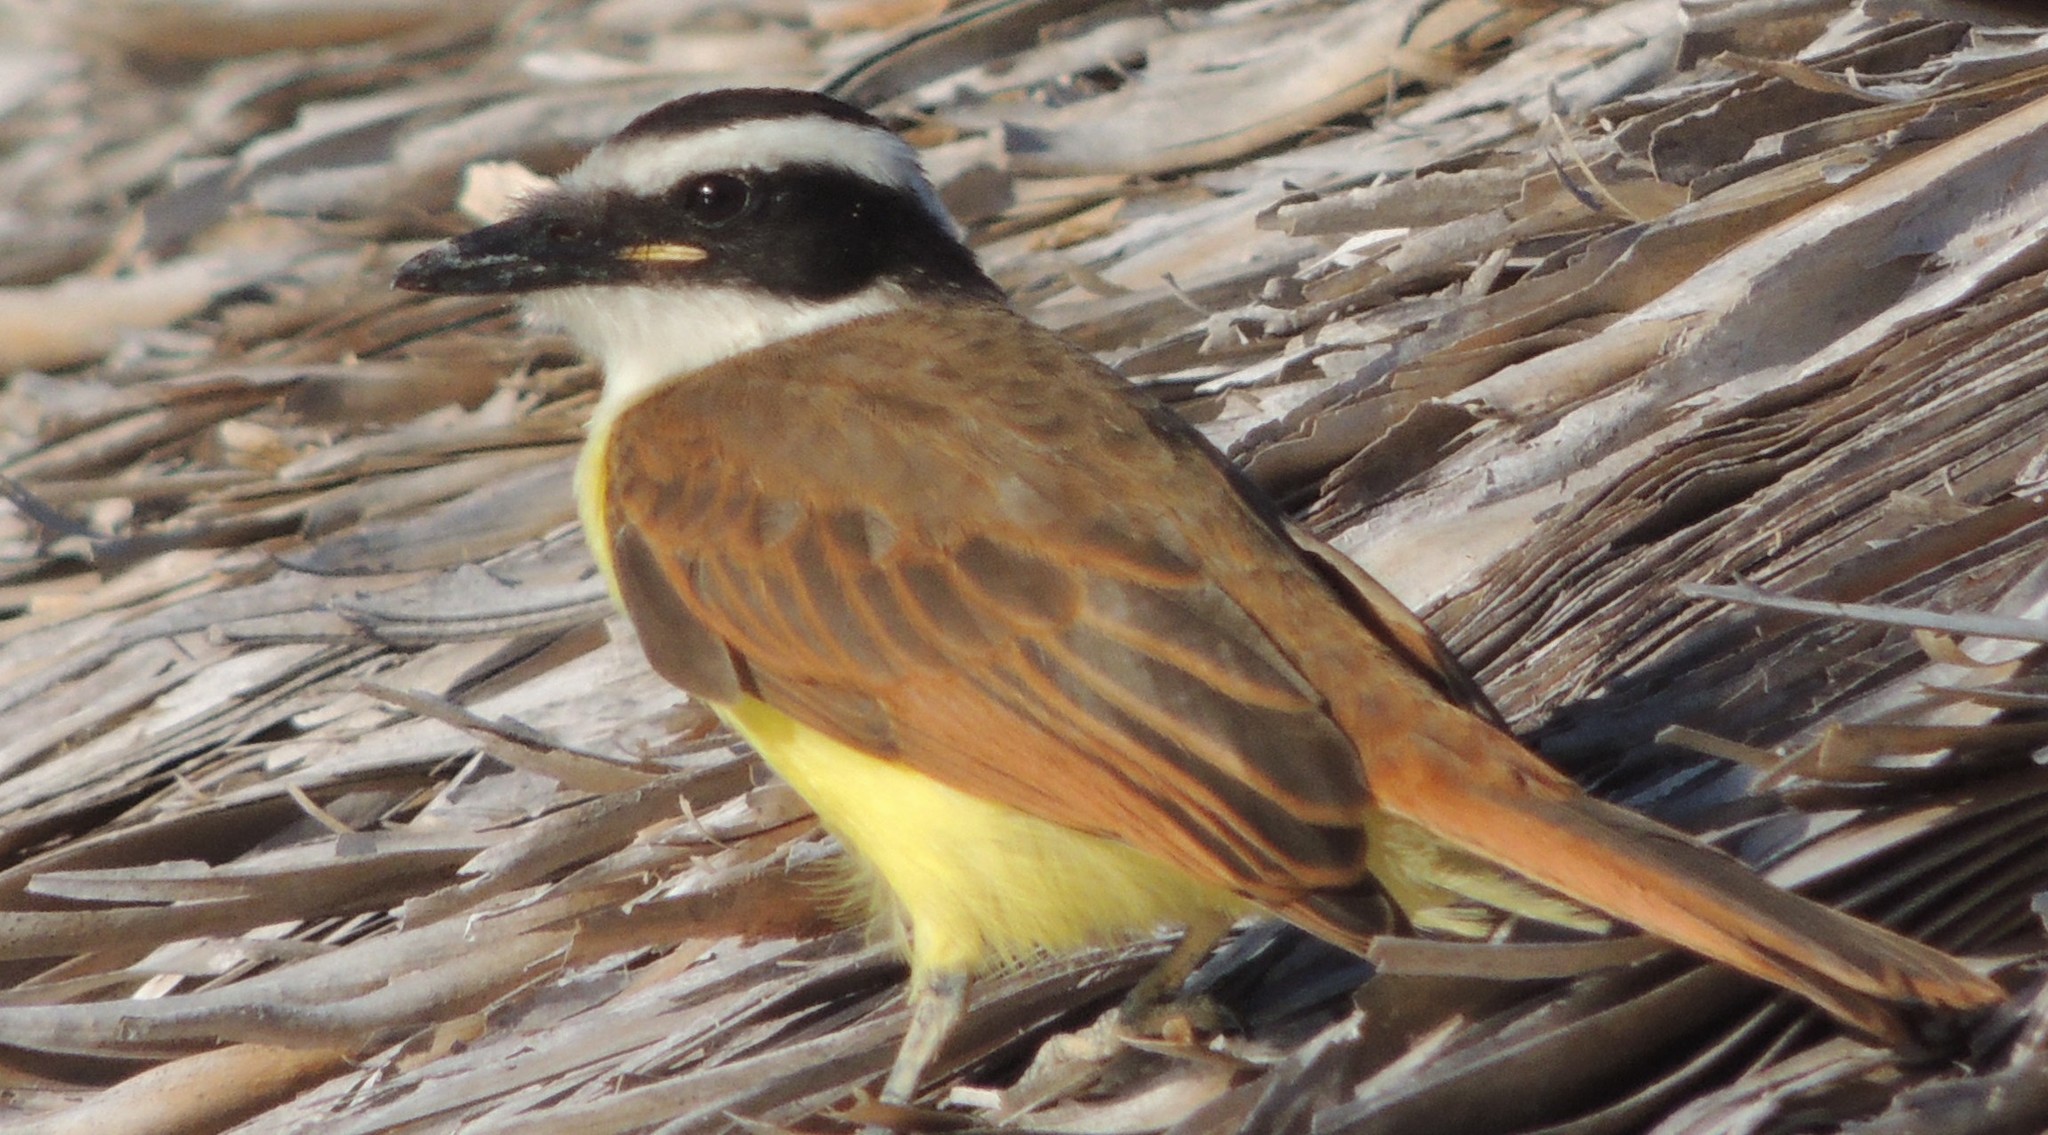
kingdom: Animalia
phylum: Chordata
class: Aves
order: Passeriformes
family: Tyrannidae
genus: Pitangus
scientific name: Pitangus sulphuratus
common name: Great kiskadee
